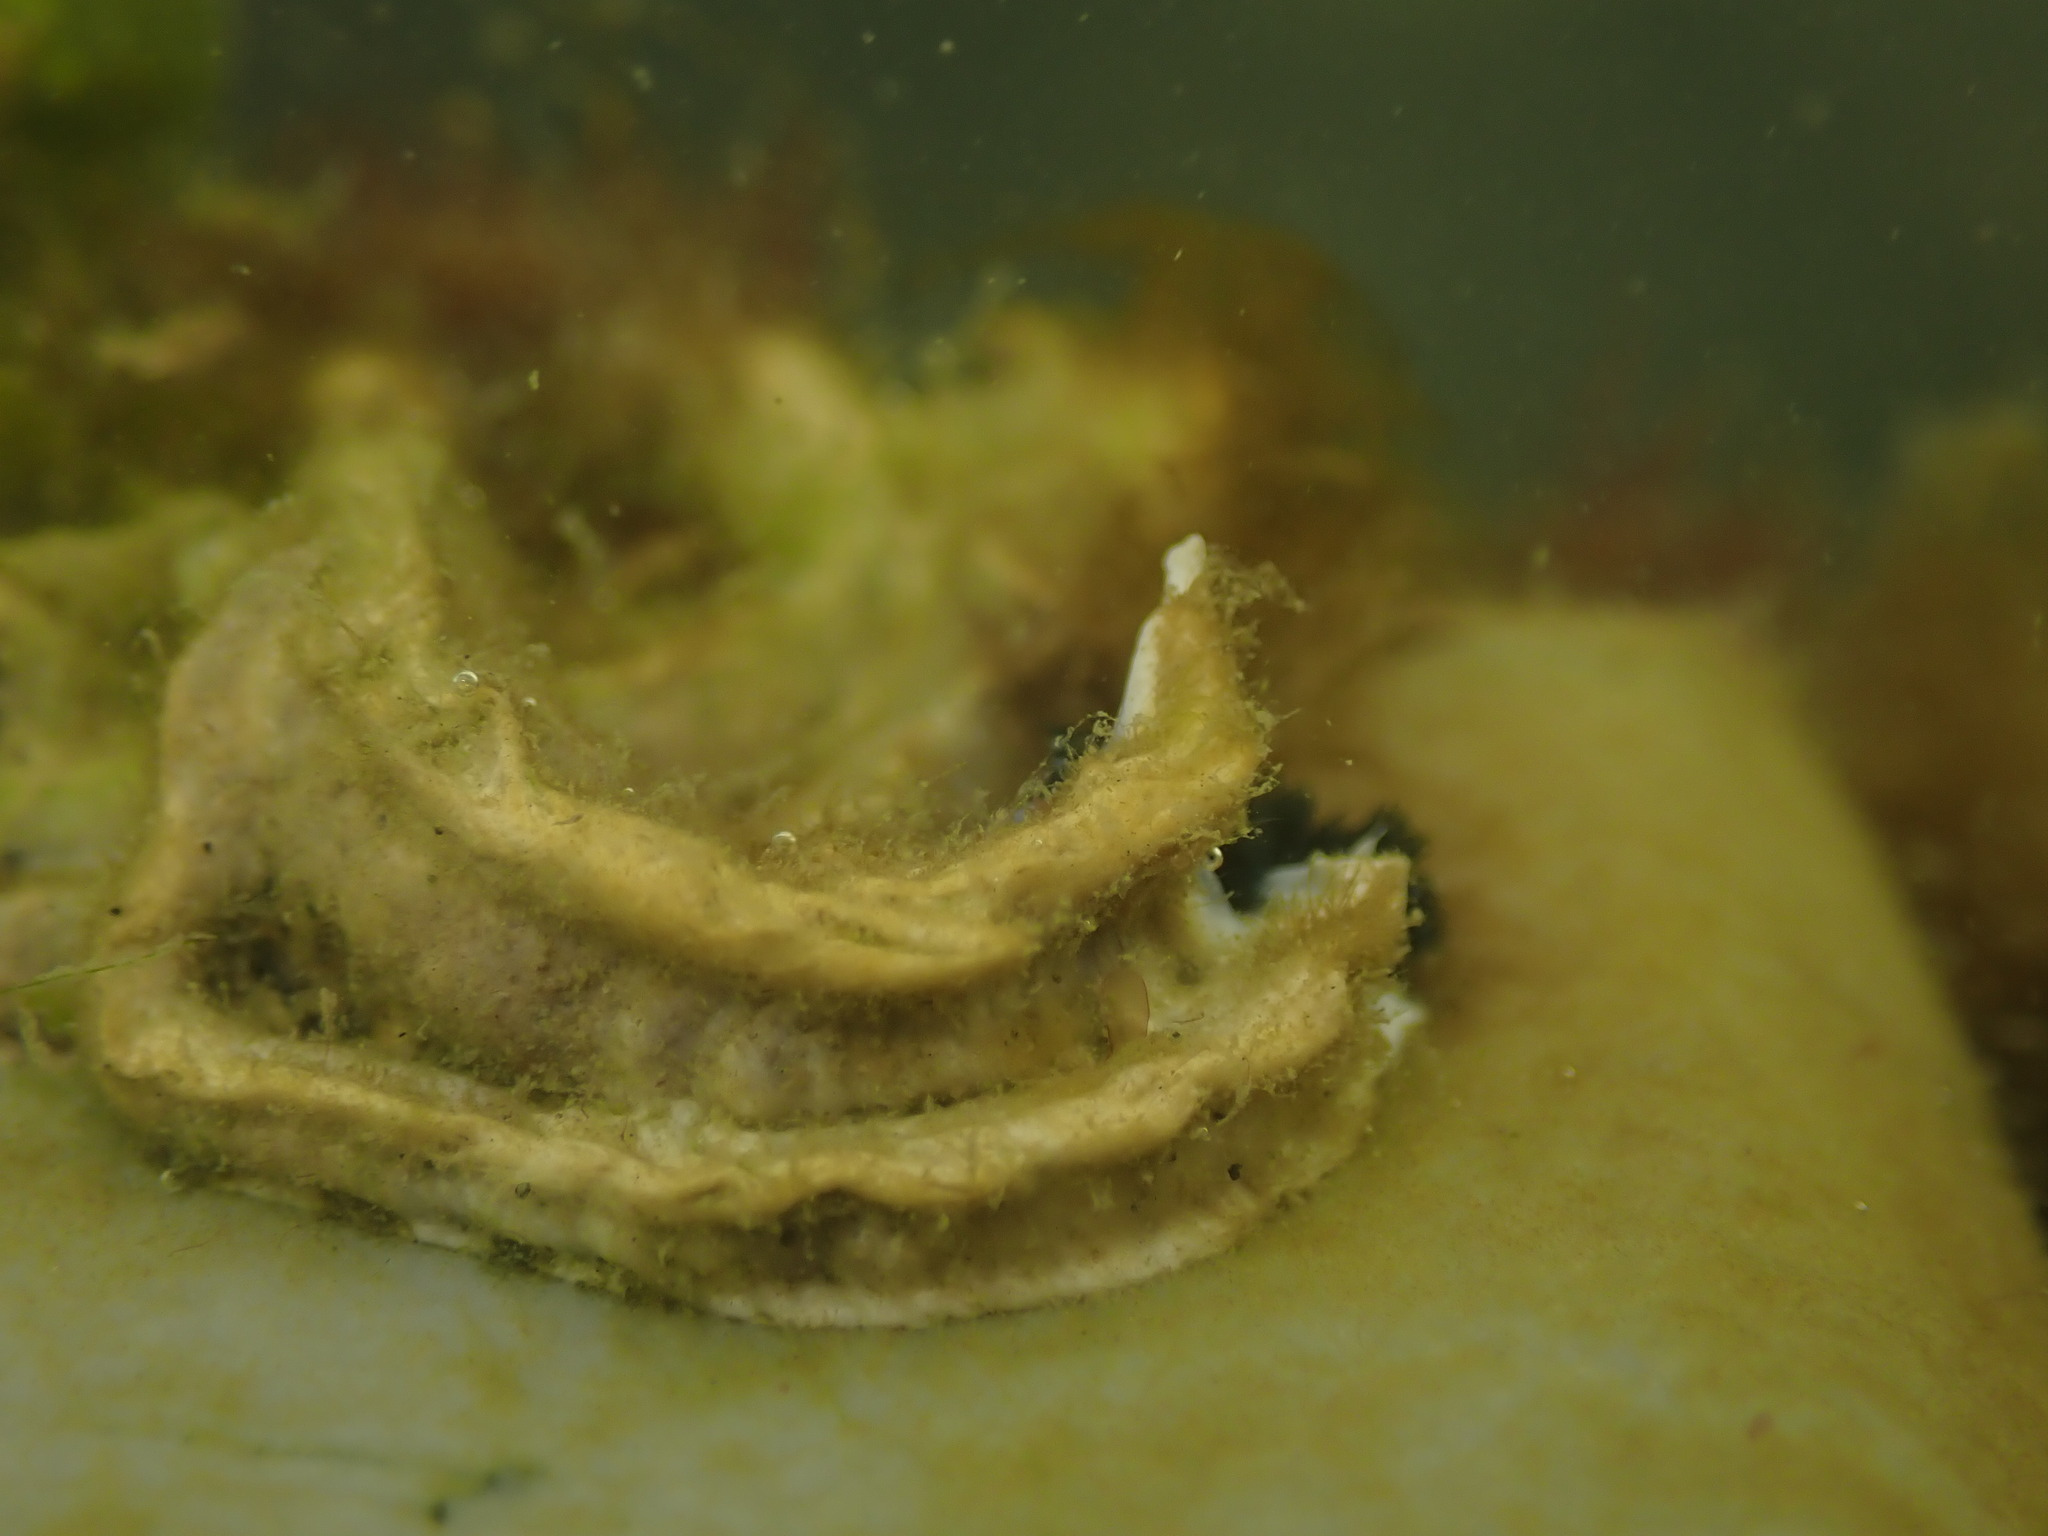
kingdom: Animalia
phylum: Annelida
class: Polychaeta
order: Sabellida
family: Serpulidae
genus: Spirobranchus
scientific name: Spirobranchus cariniferus
